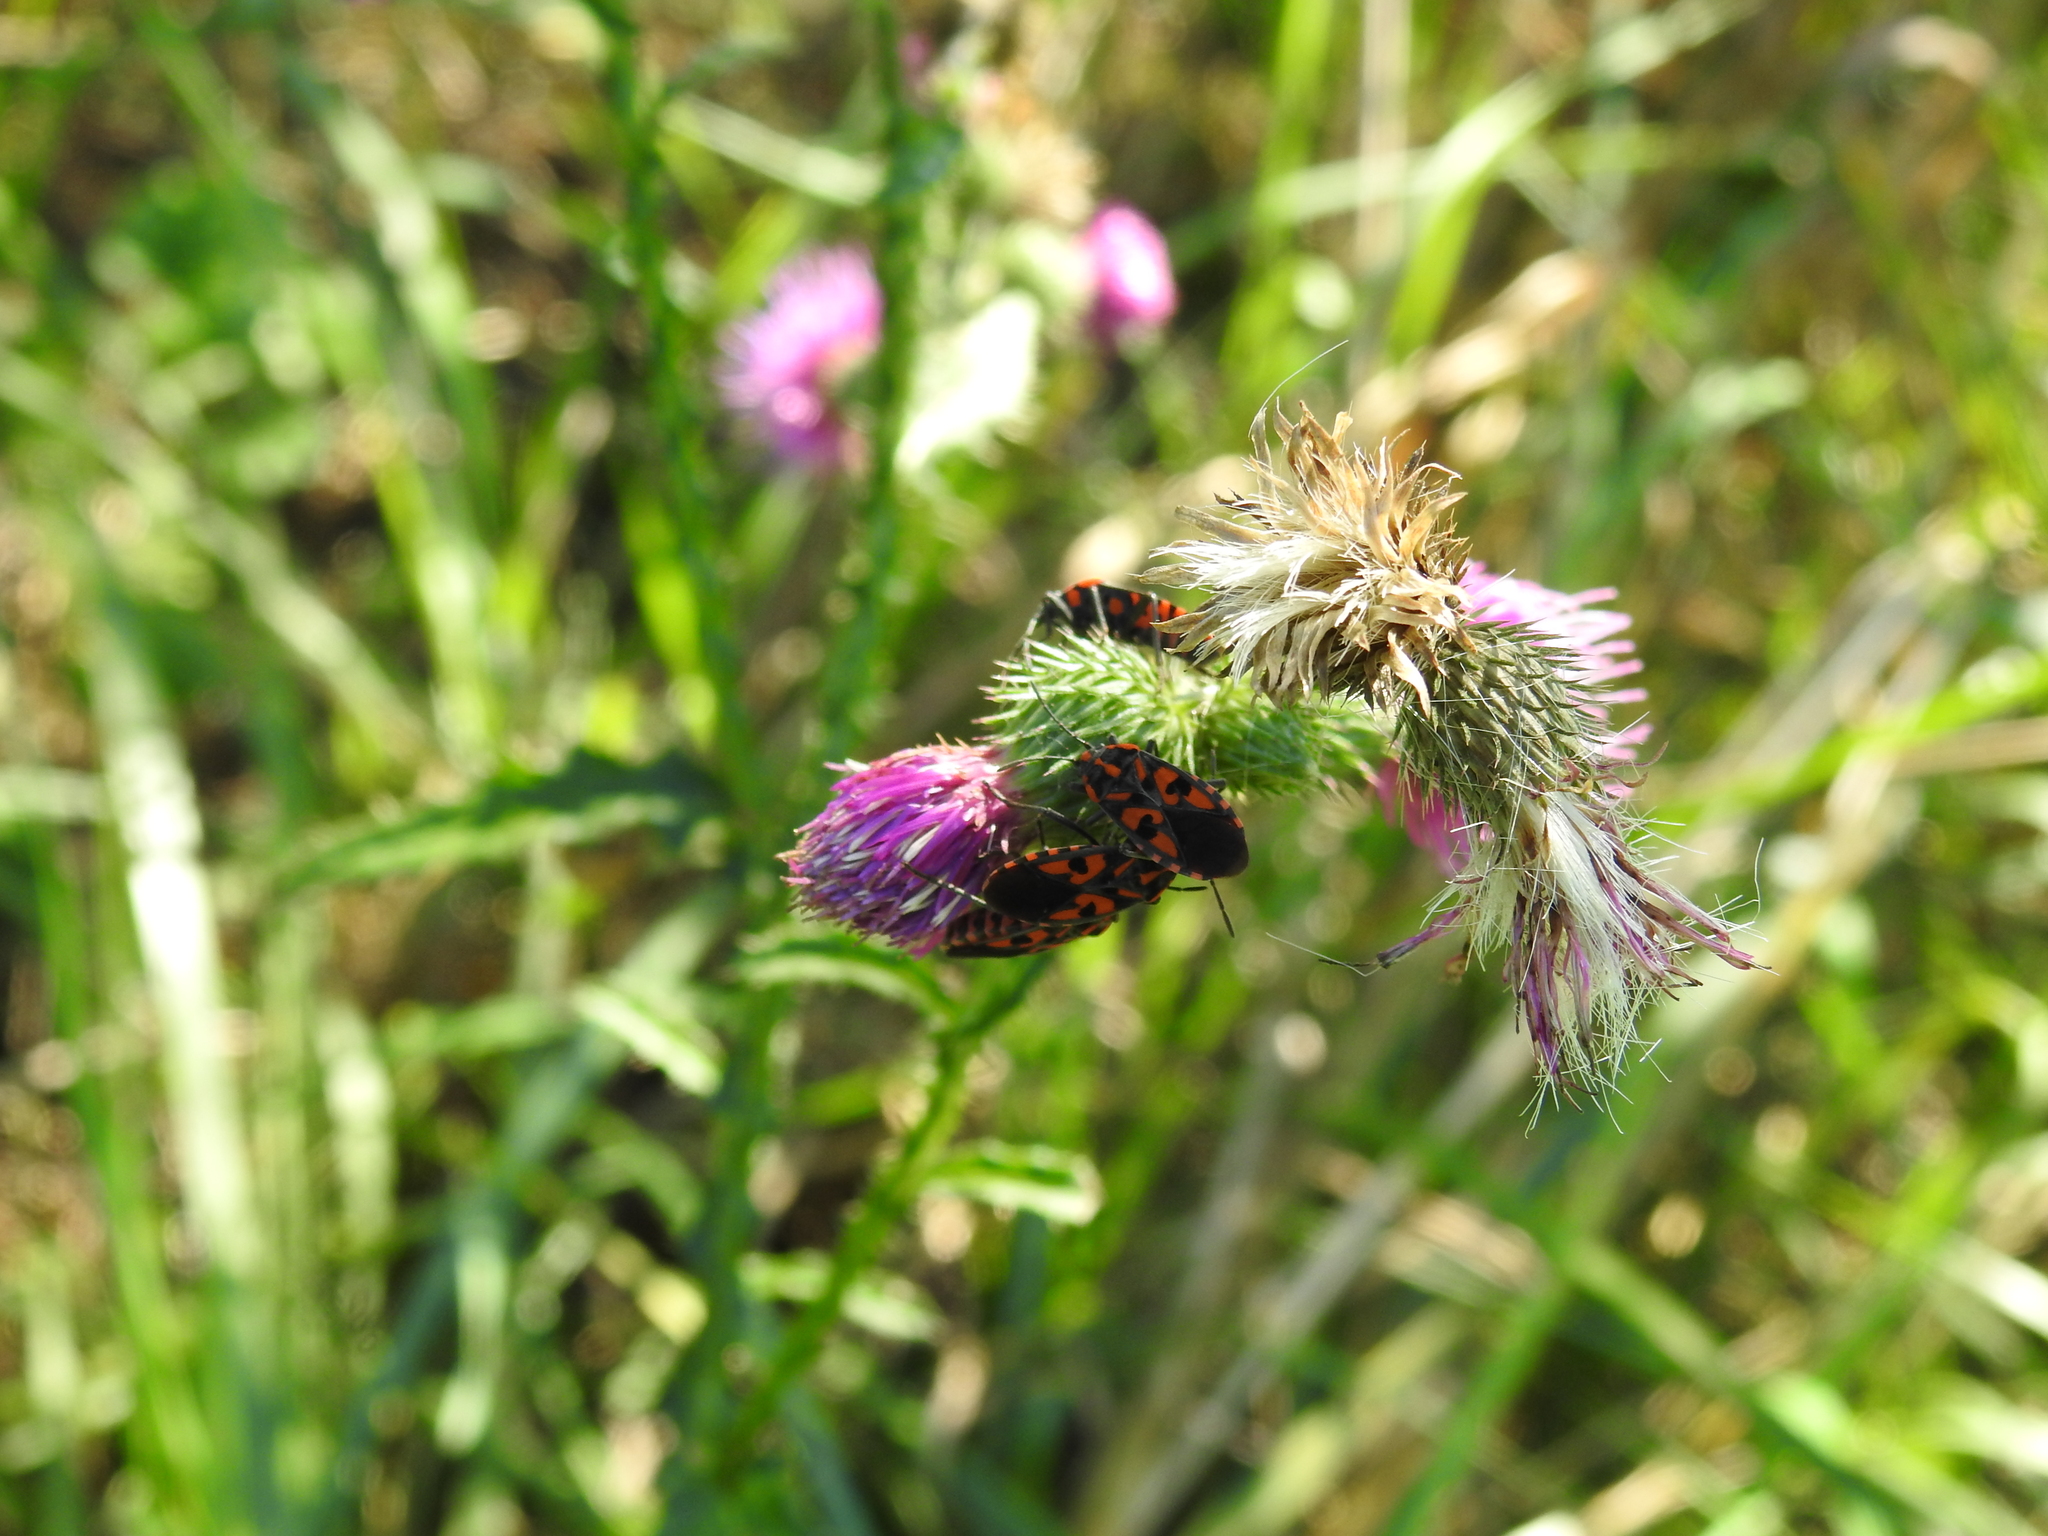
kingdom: Animalia
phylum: Arthropoda
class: Insecta
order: Hemiptera
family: Lygaeidae
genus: Spilostethus
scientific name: Spilostethus saxatilis
